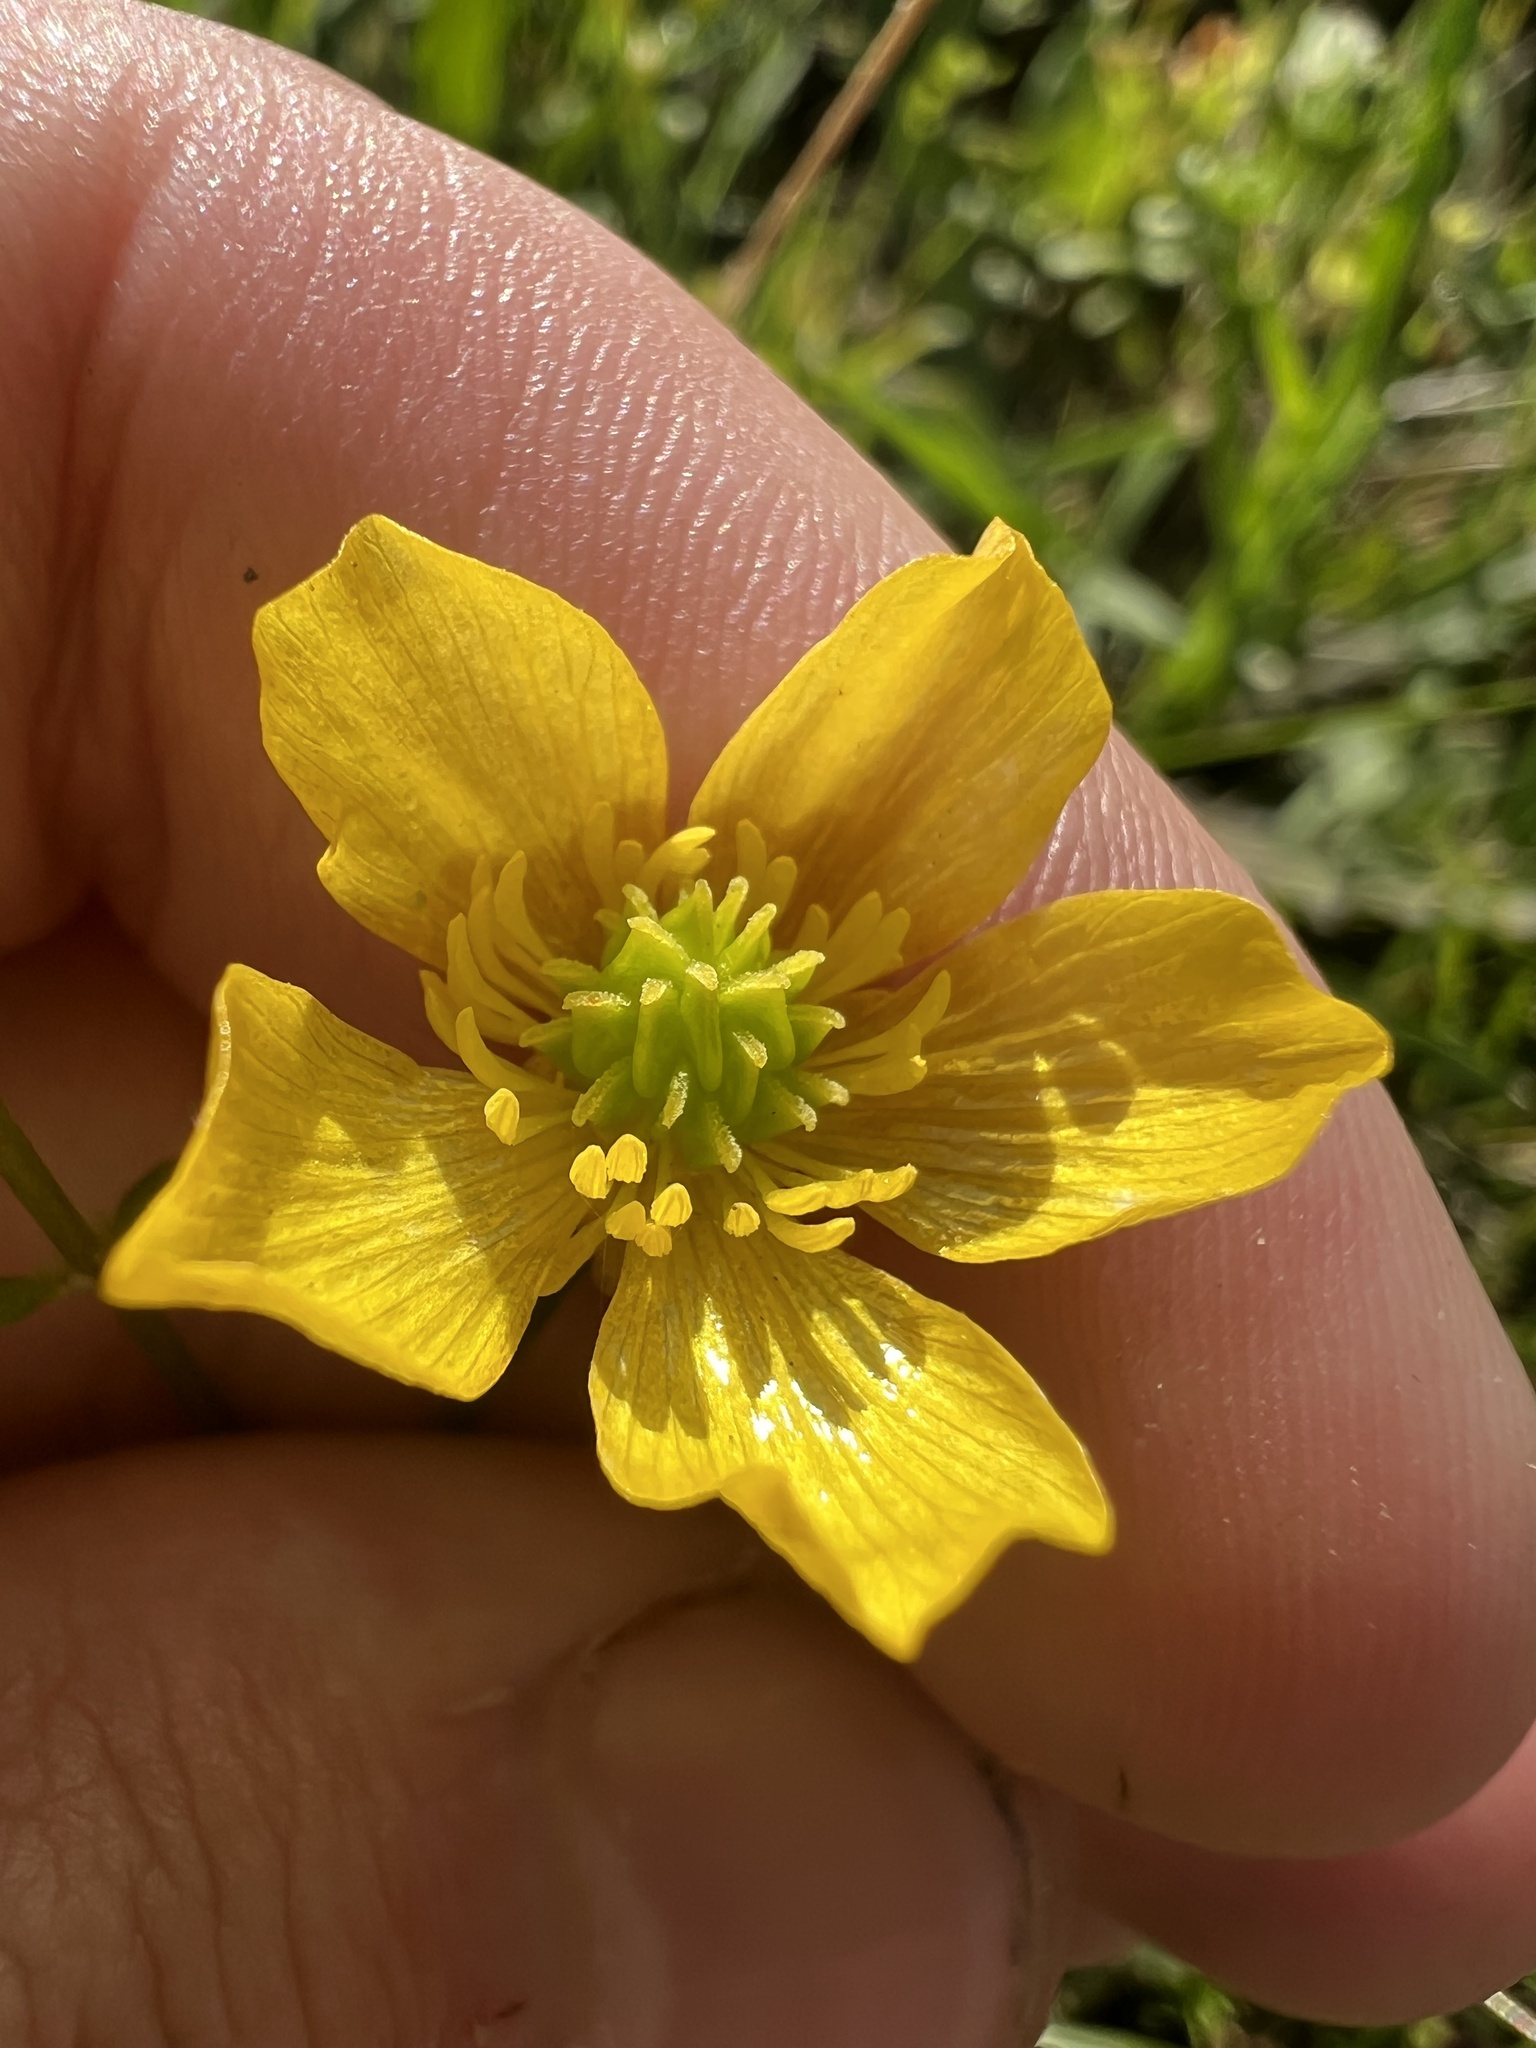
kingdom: Plantae
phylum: Tracheophyta
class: Magnoliopsida
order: Ranunculales
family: Ranunculaceae
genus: Ranunculus
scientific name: Ranunculus sardous
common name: Hairy buttercup
